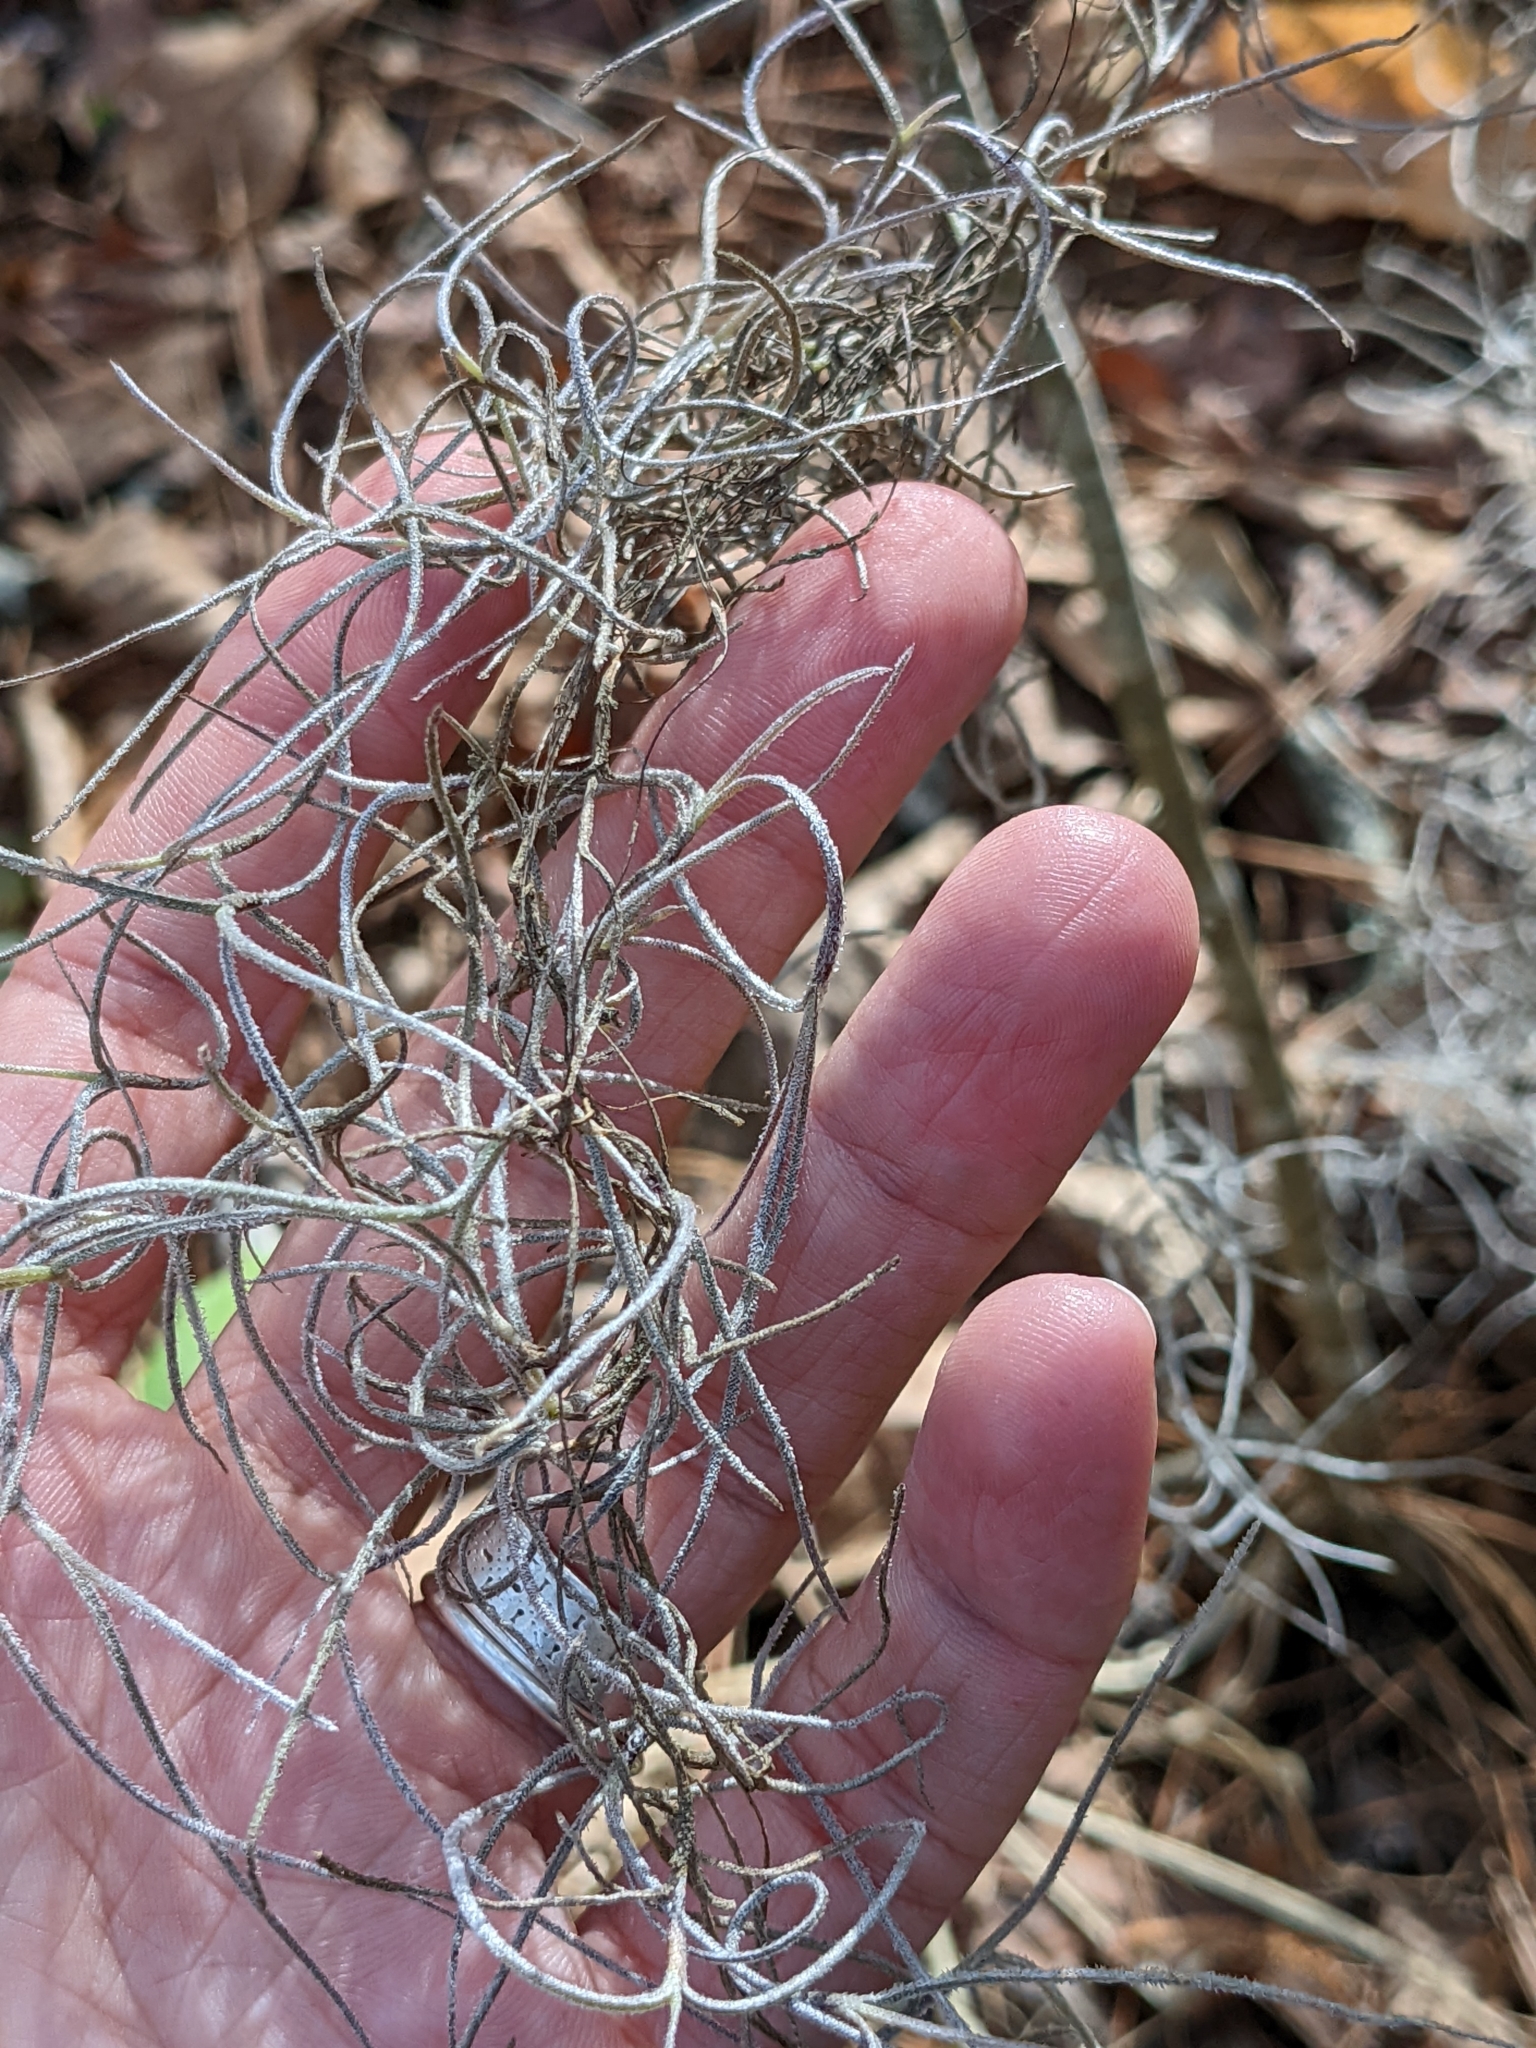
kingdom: Plantae
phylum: Tracheophyta
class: Liliopsida
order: Poales
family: Bromeliaceae
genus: Tillandsia
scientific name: Tillandsia usneoides
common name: Spanish moss
